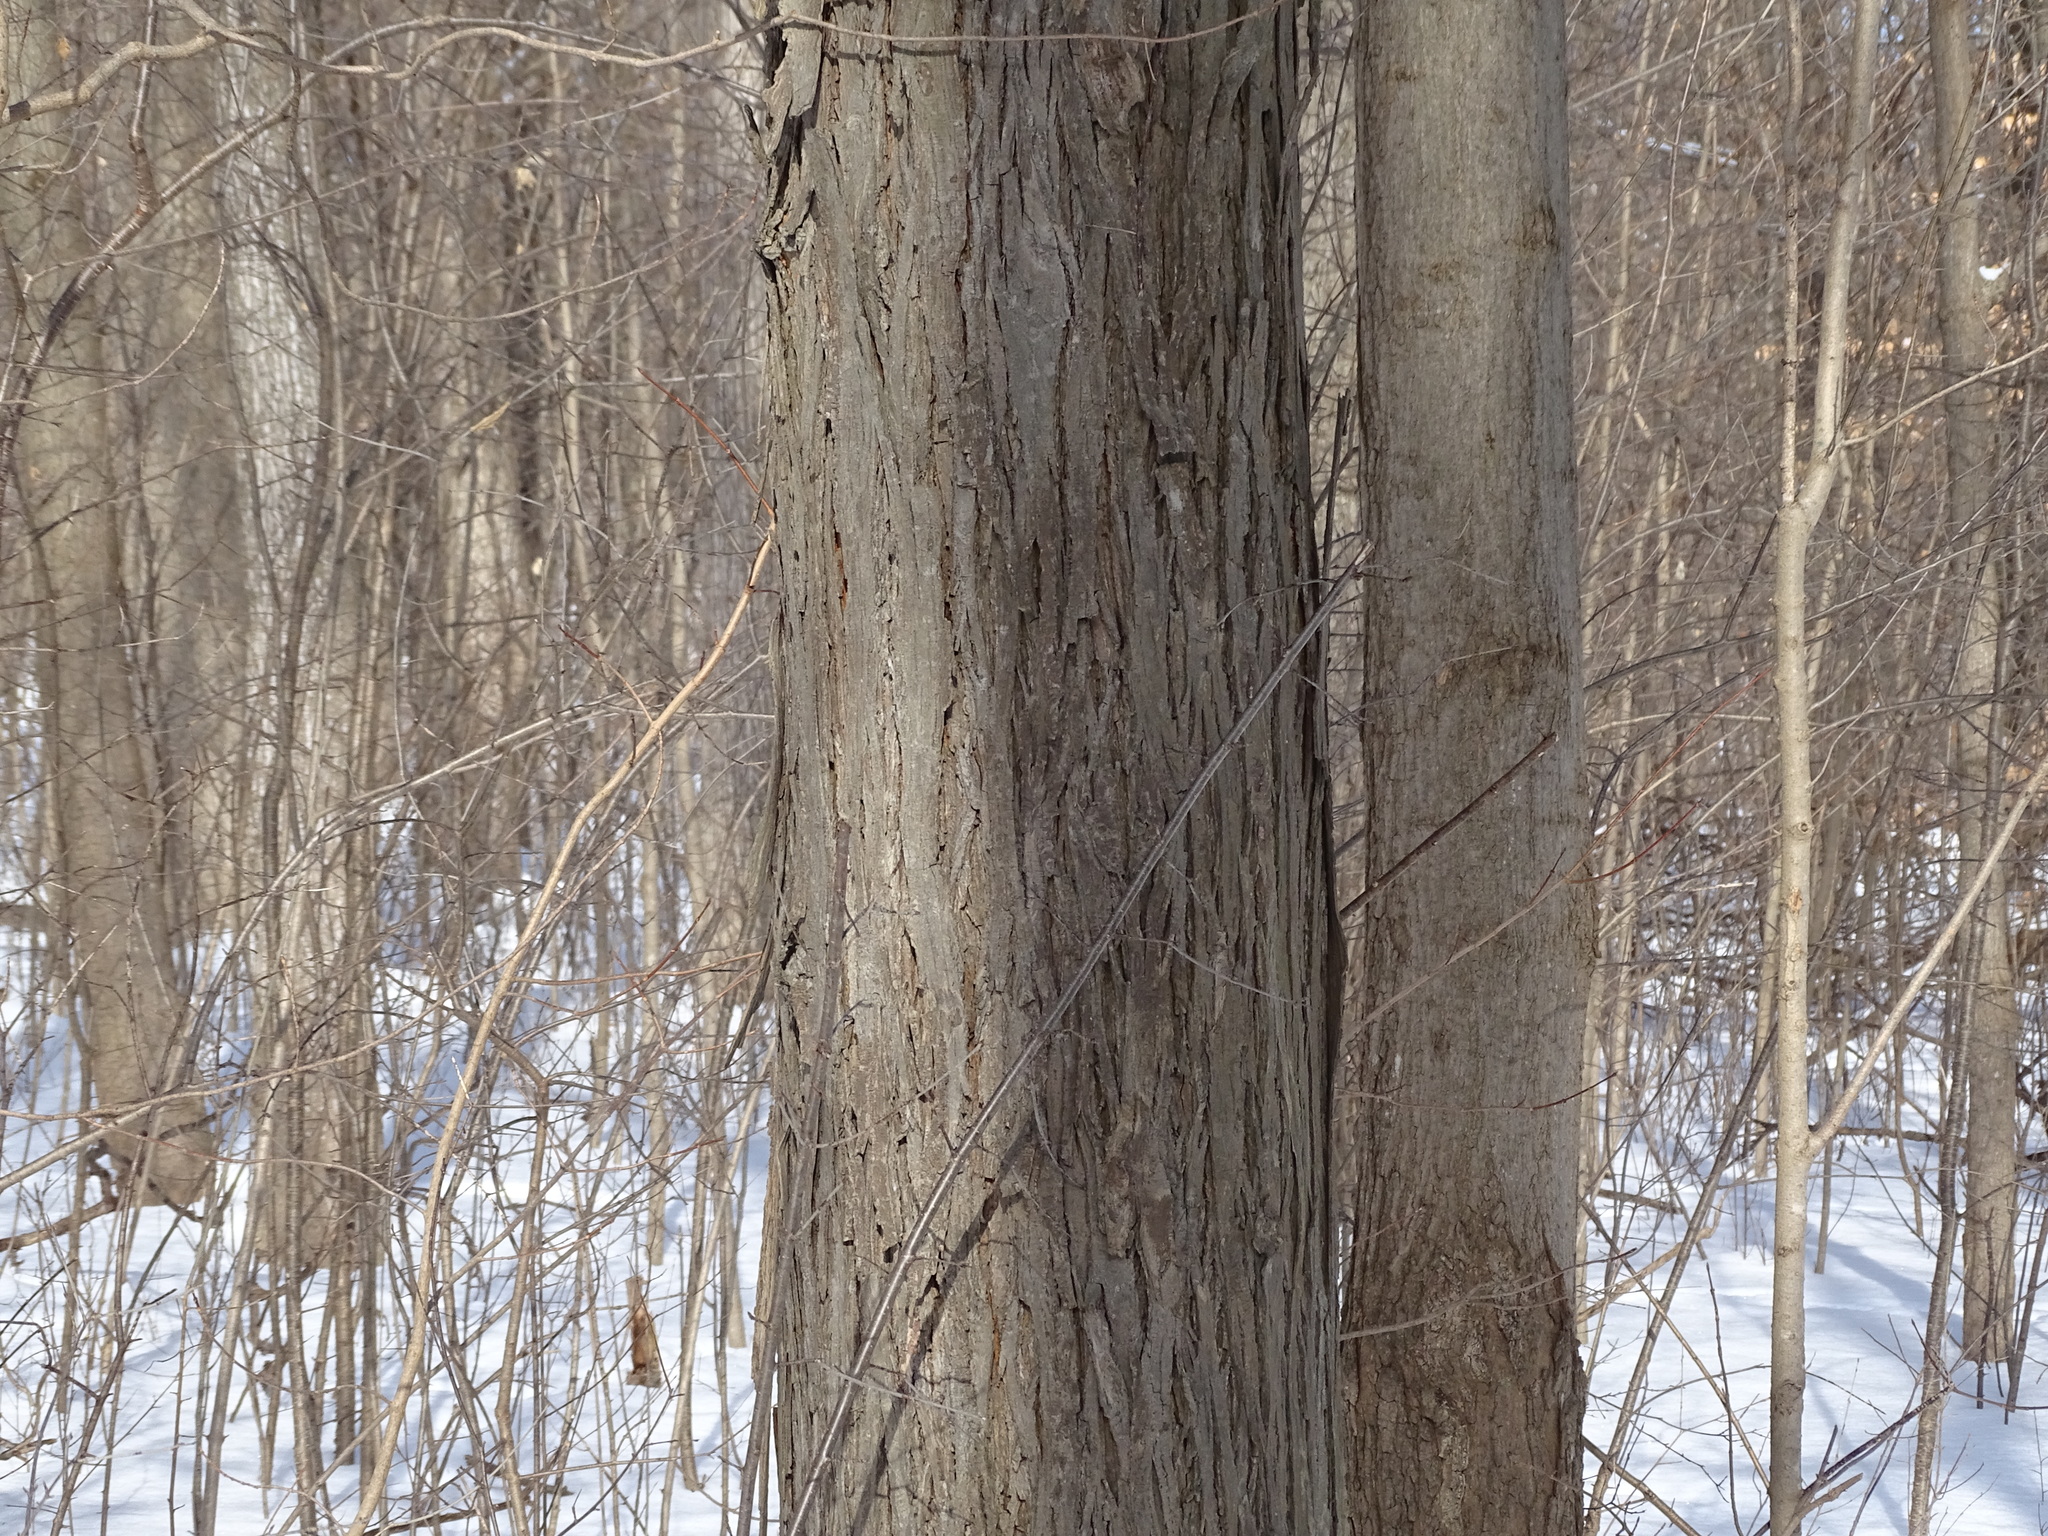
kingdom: Plantae
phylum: Tracheophyta
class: Magnoliopsida
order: Fagales
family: Juglandaceae
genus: Carya
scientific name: Carya ovata
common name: Shagbark hickory
